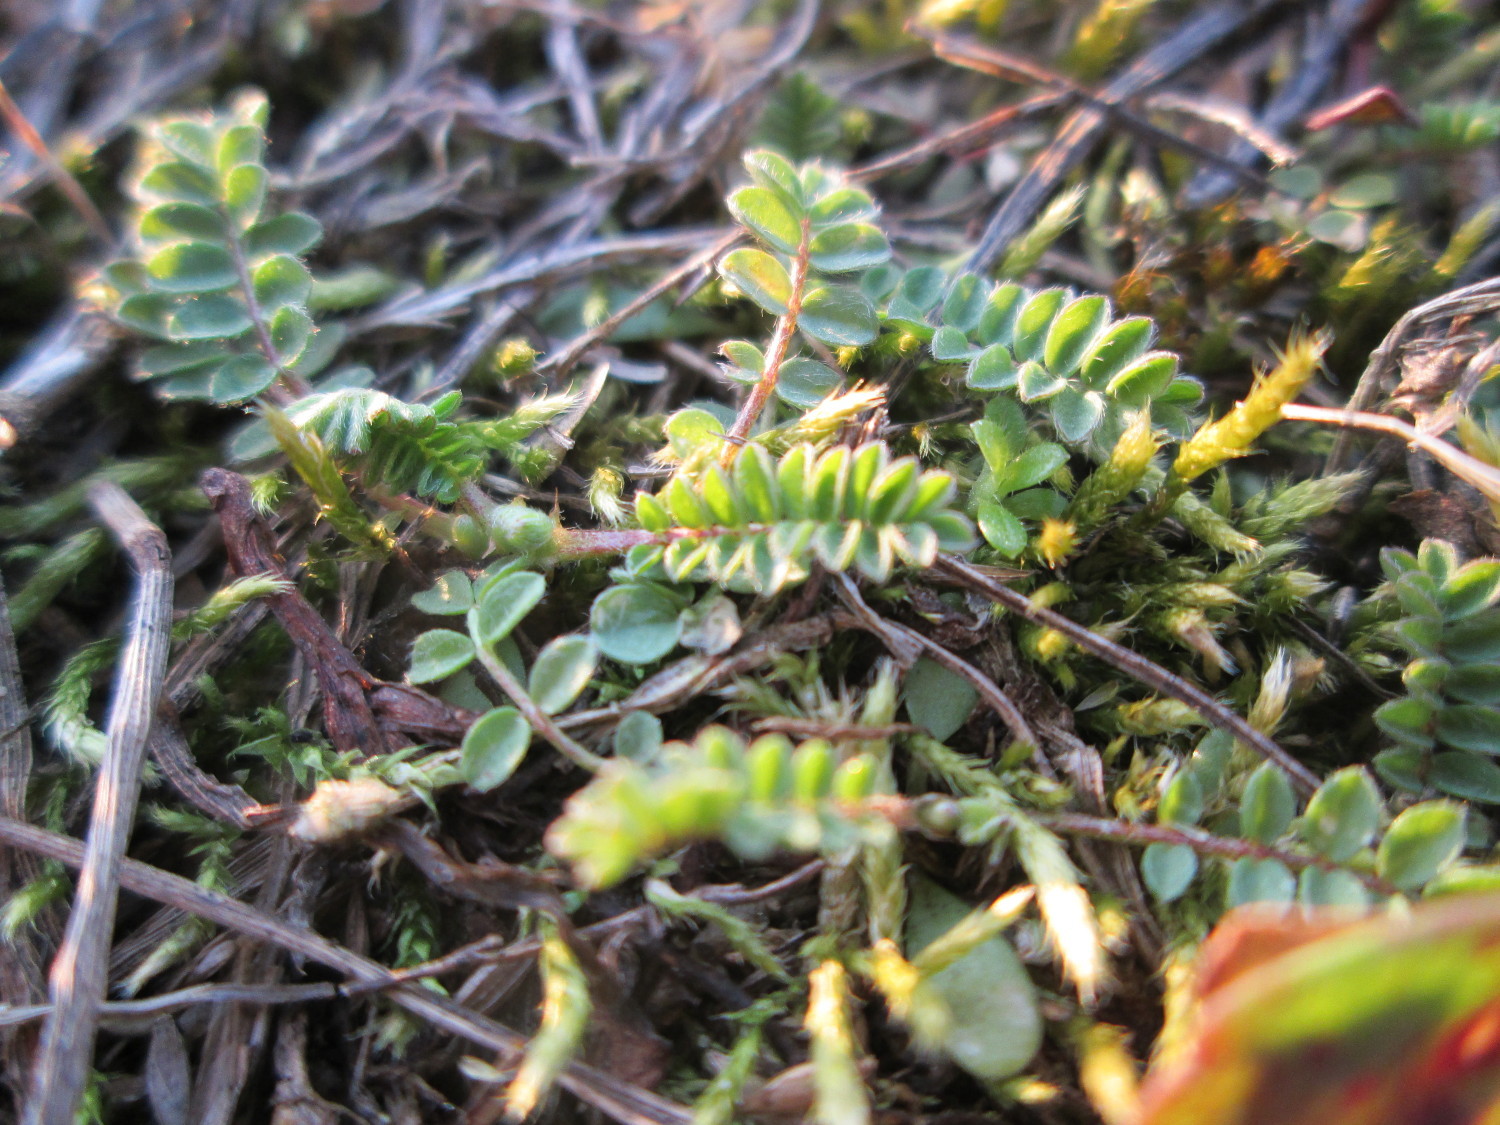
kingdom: Plantae
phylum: Tracheophyta
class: Magnoliopsida
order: Fabales
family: Fabaceae
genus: Ornithopus
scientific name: Ornithopus perpusillus
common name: Bird's-foot
